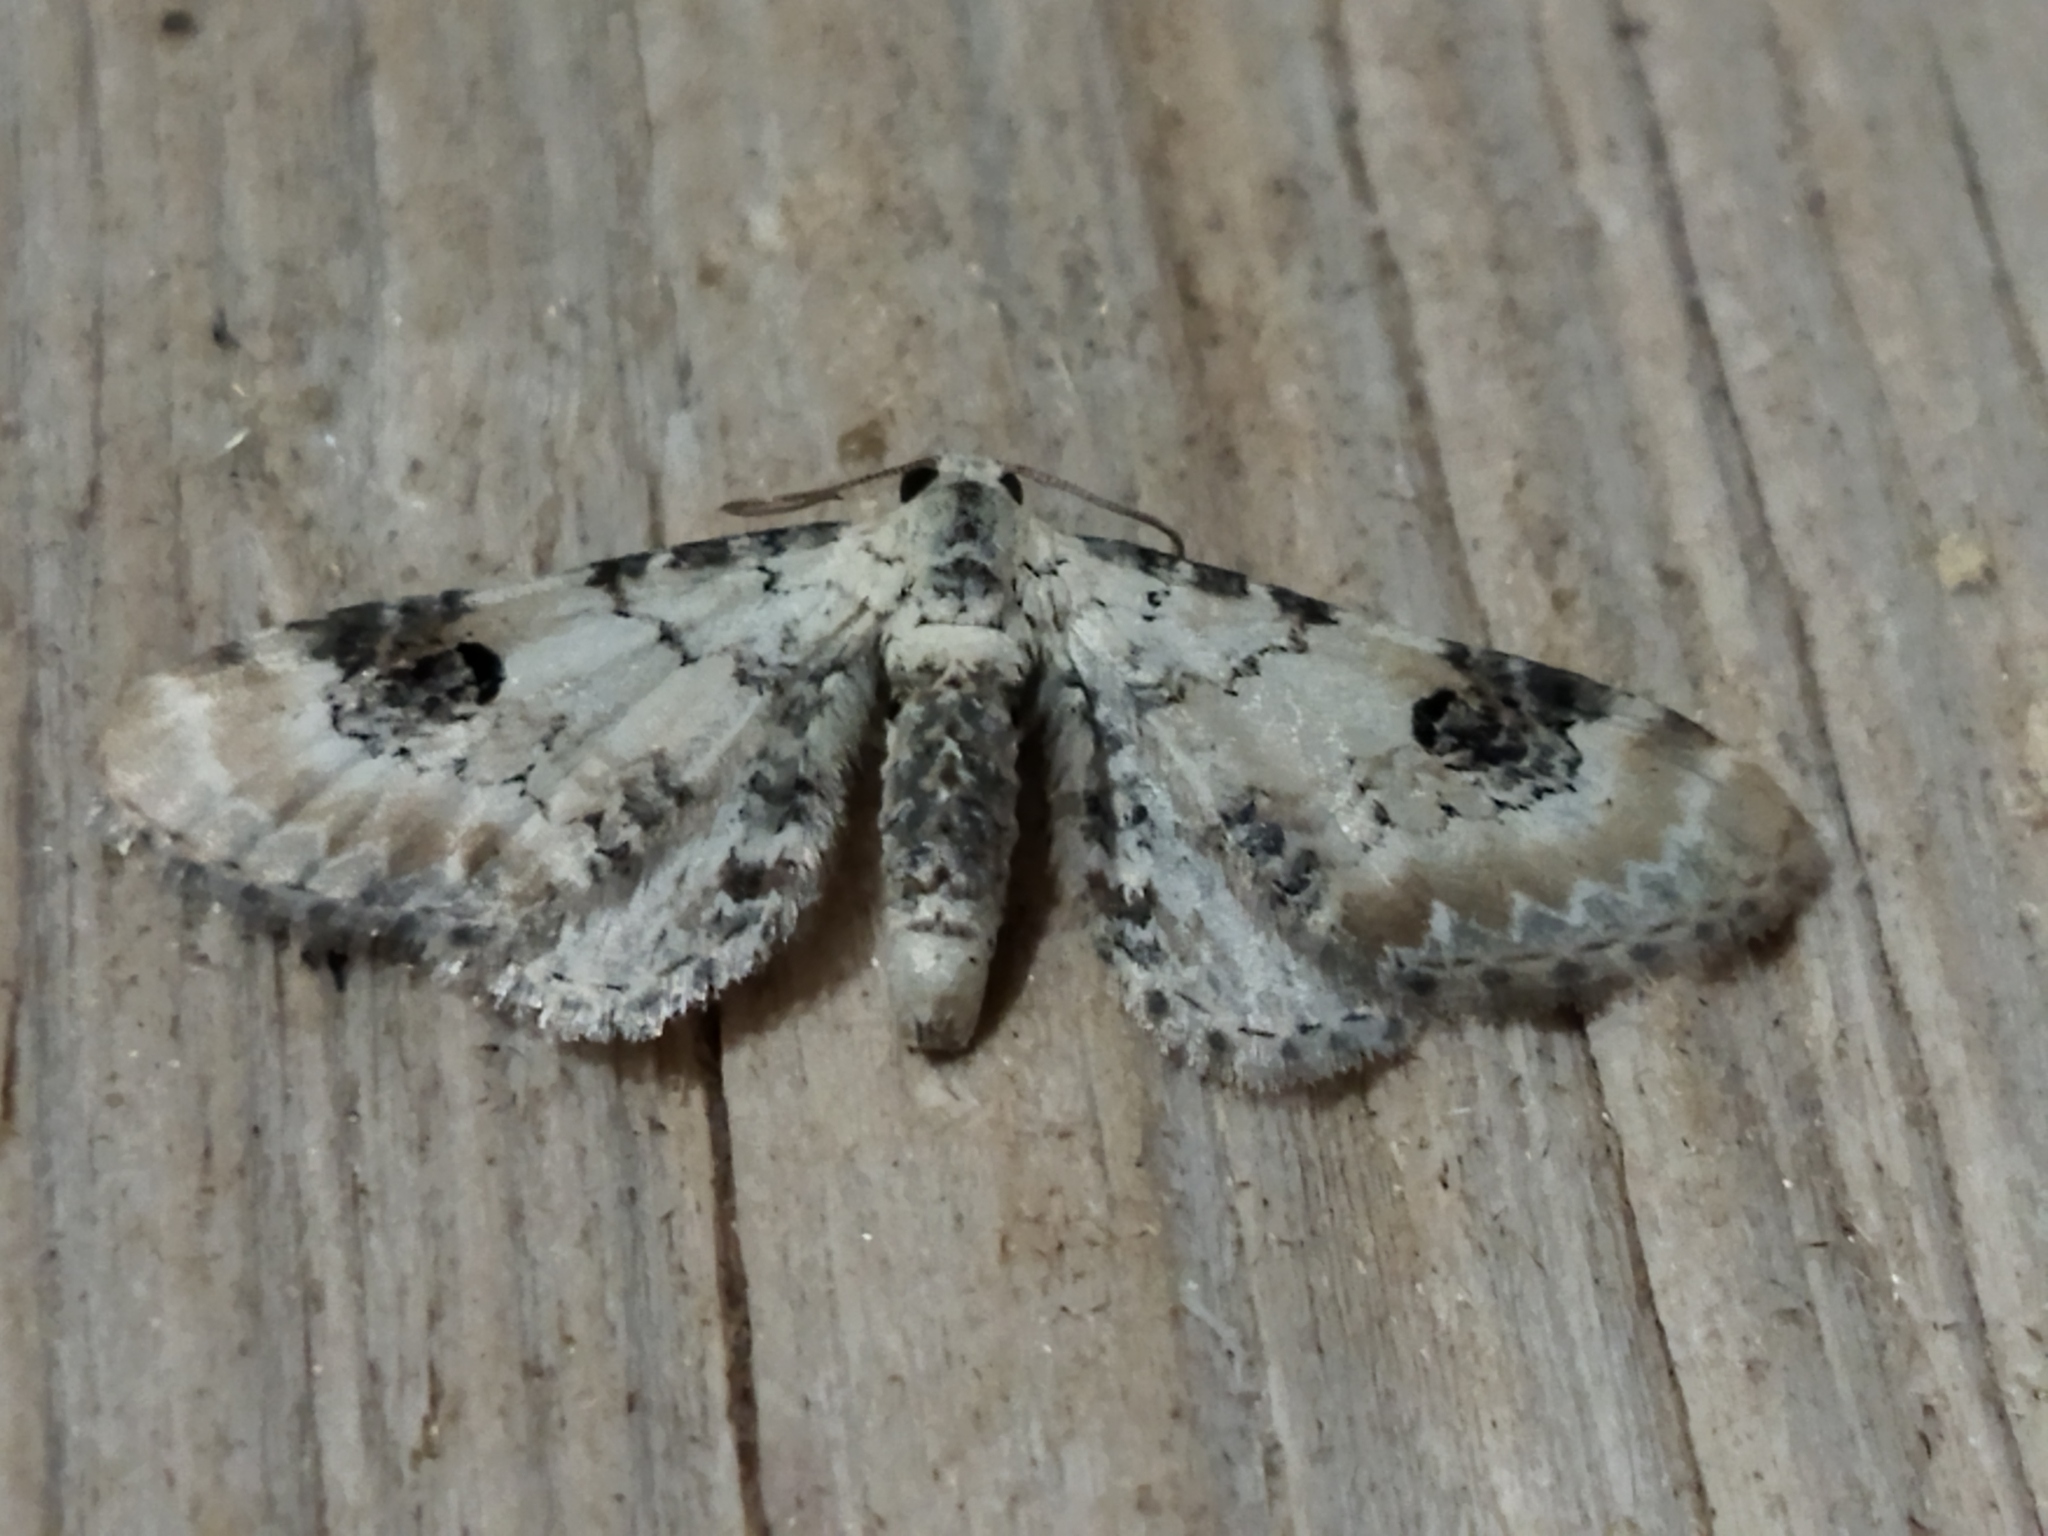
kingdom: Animalia
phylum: Arthropoda
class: Insecta
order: Lepidoptera
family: Geometridae
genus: Eupithecia
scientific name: Eupithecia centaureata
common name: Lime-speck pug
